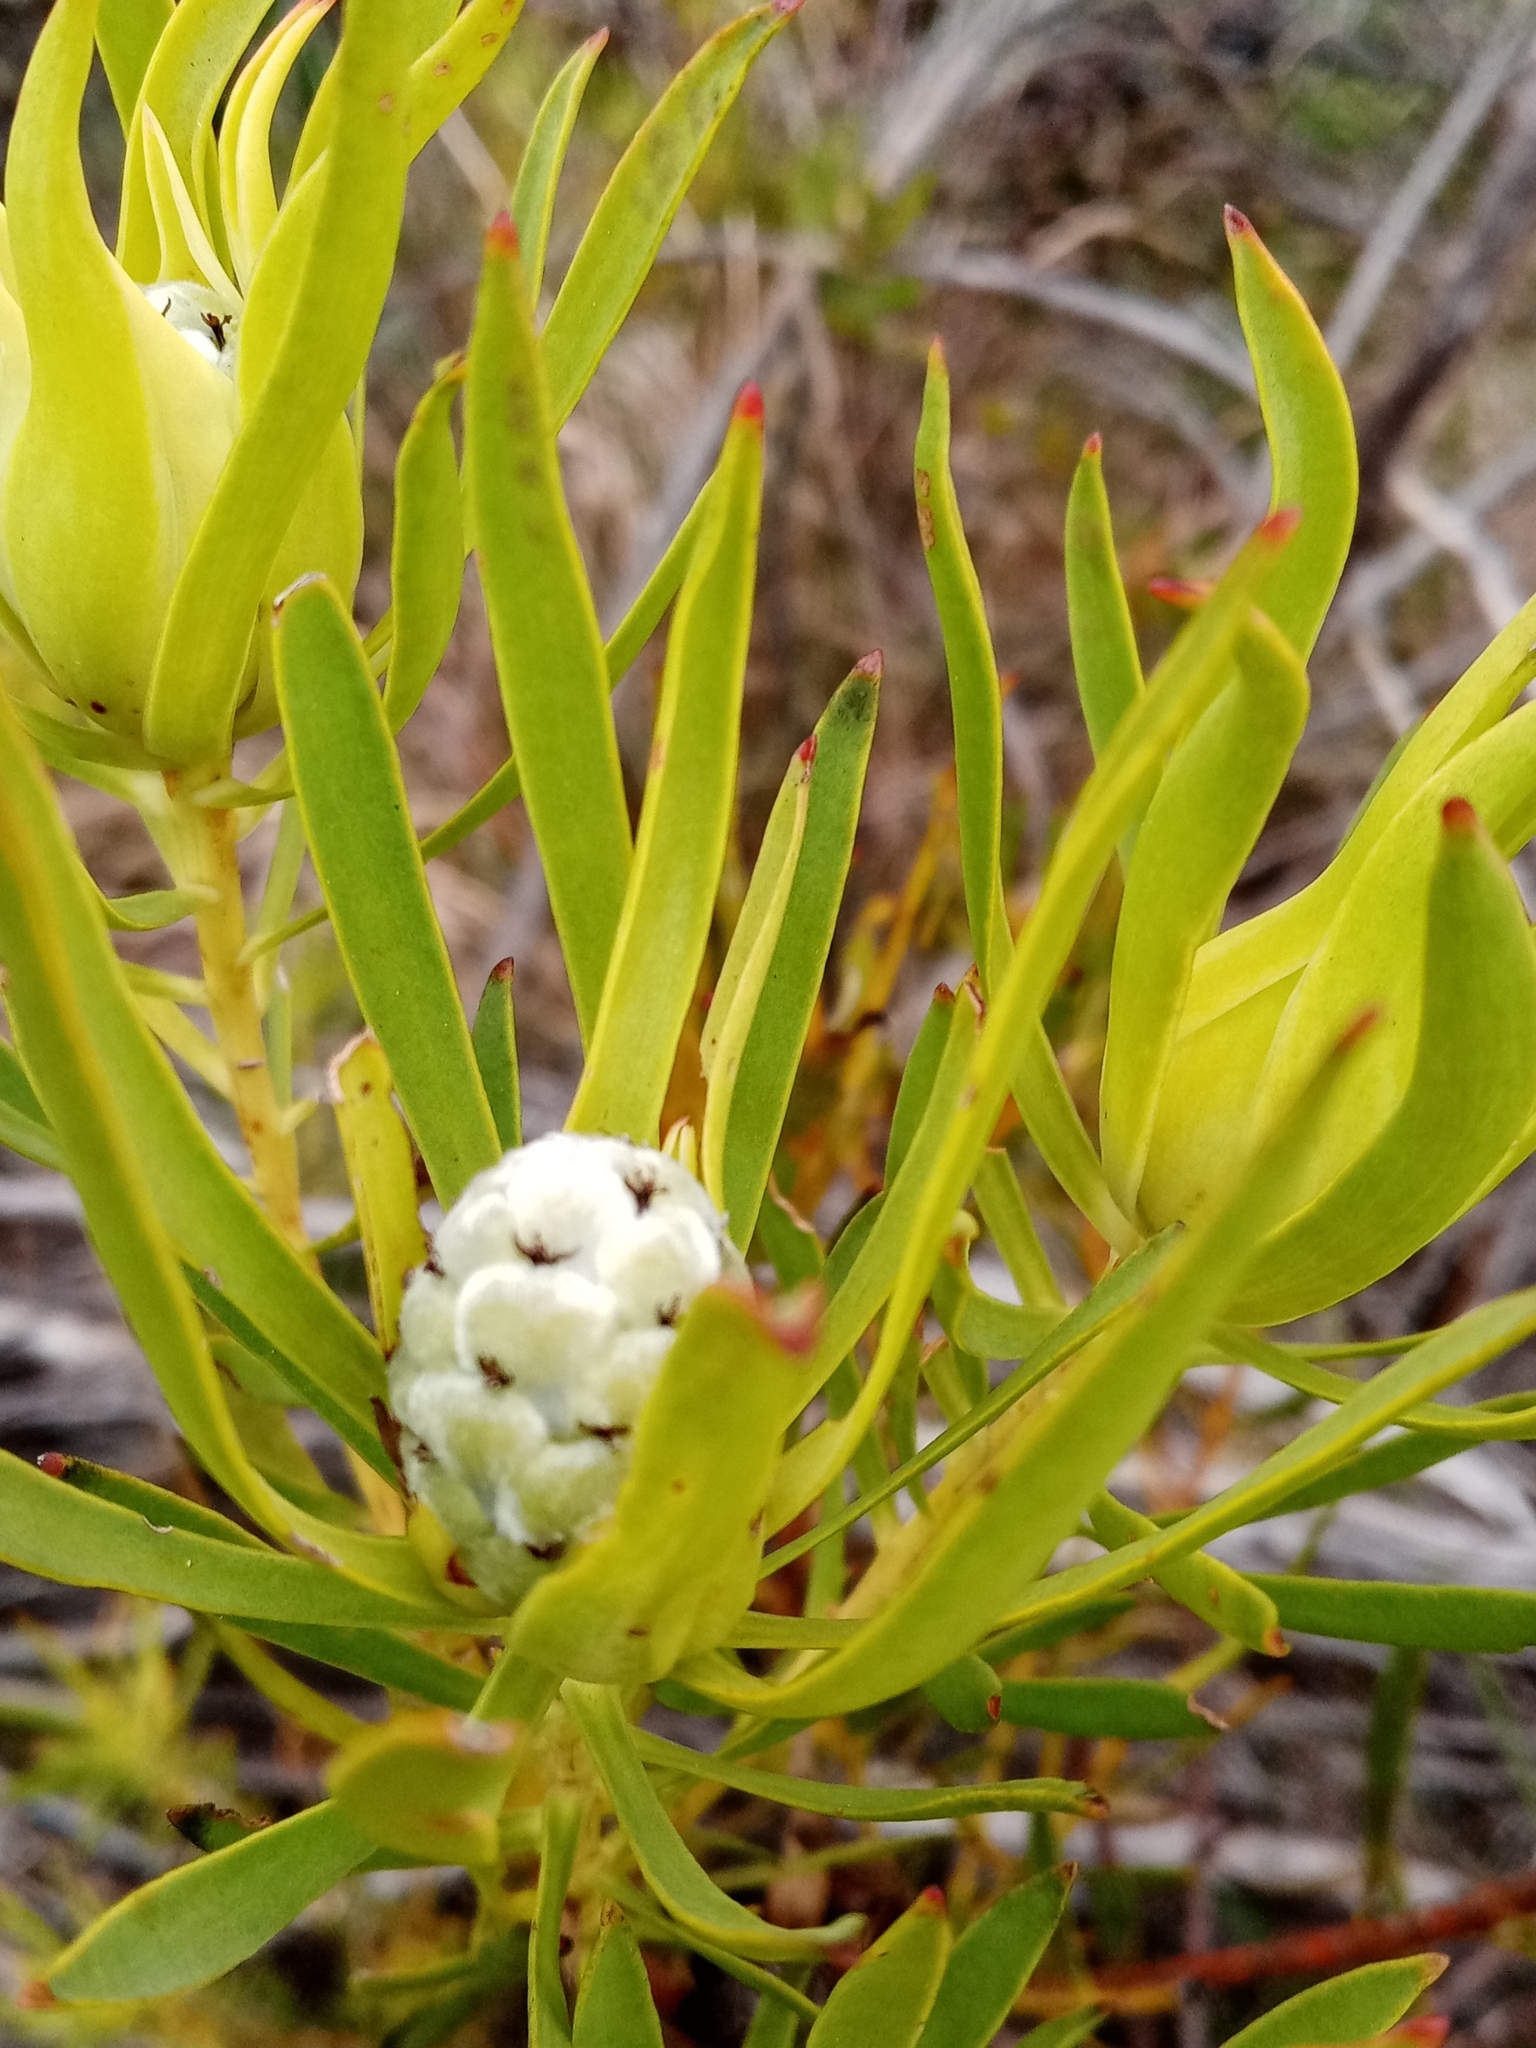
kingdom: Plantae
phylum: Tracheophyta
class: Magnoliopsida
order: Proteales
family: Proteaceae
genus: Leucadendron
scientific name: Leucadendron salignum
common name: Common sunshine conebush
